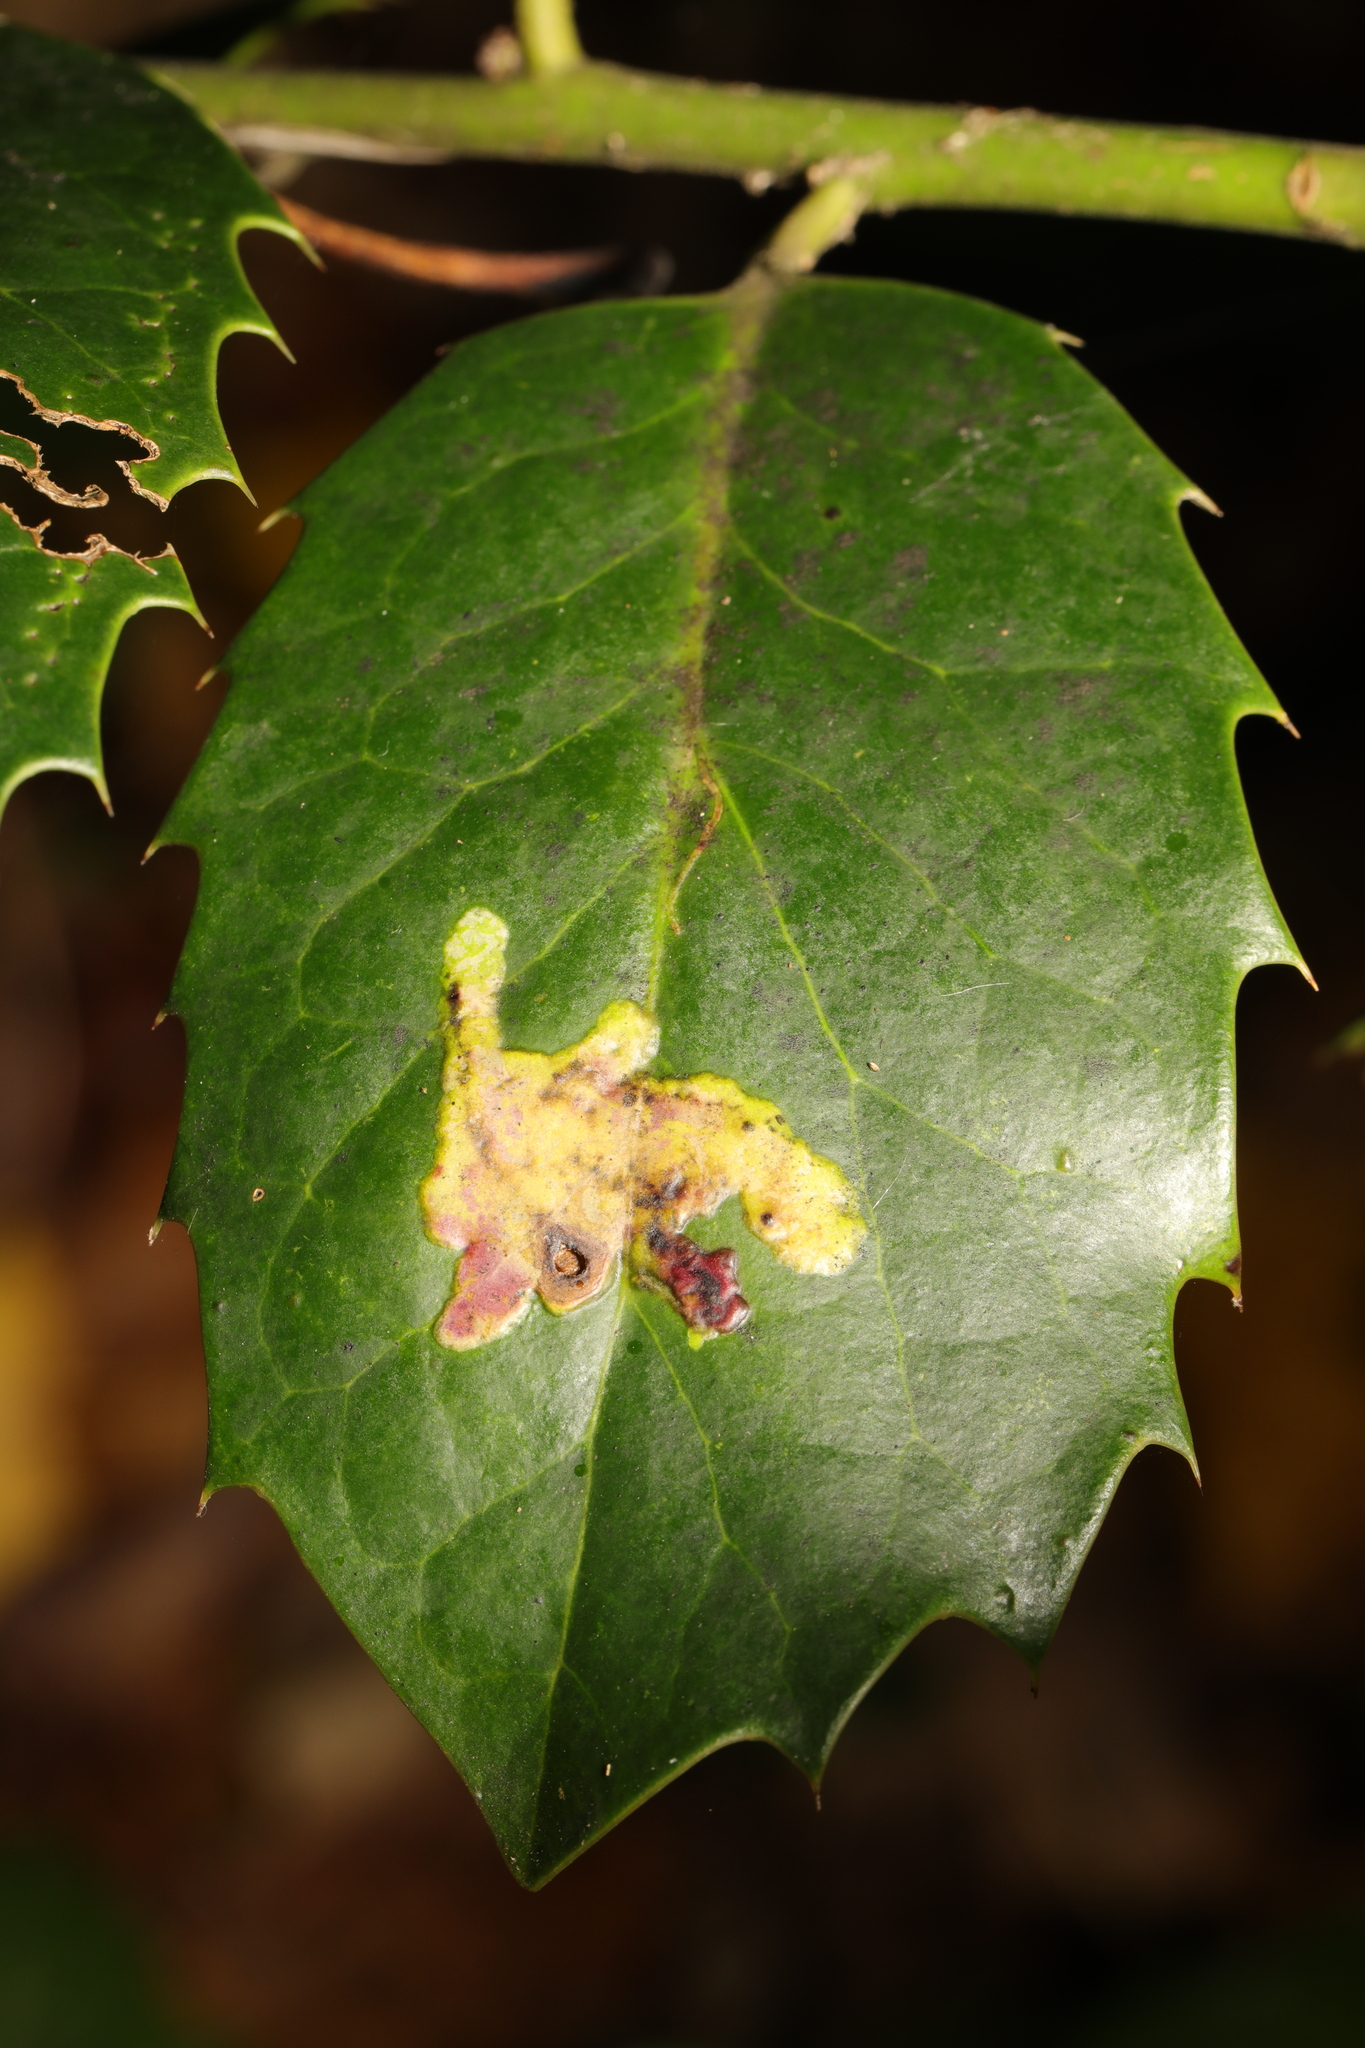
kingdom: Animalia
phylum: Arthropoda
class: Insecta
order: Diptera
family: Agromyzidae
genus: Phytomyza
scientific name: Phytomyza ilicis
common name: Holly leafminer
